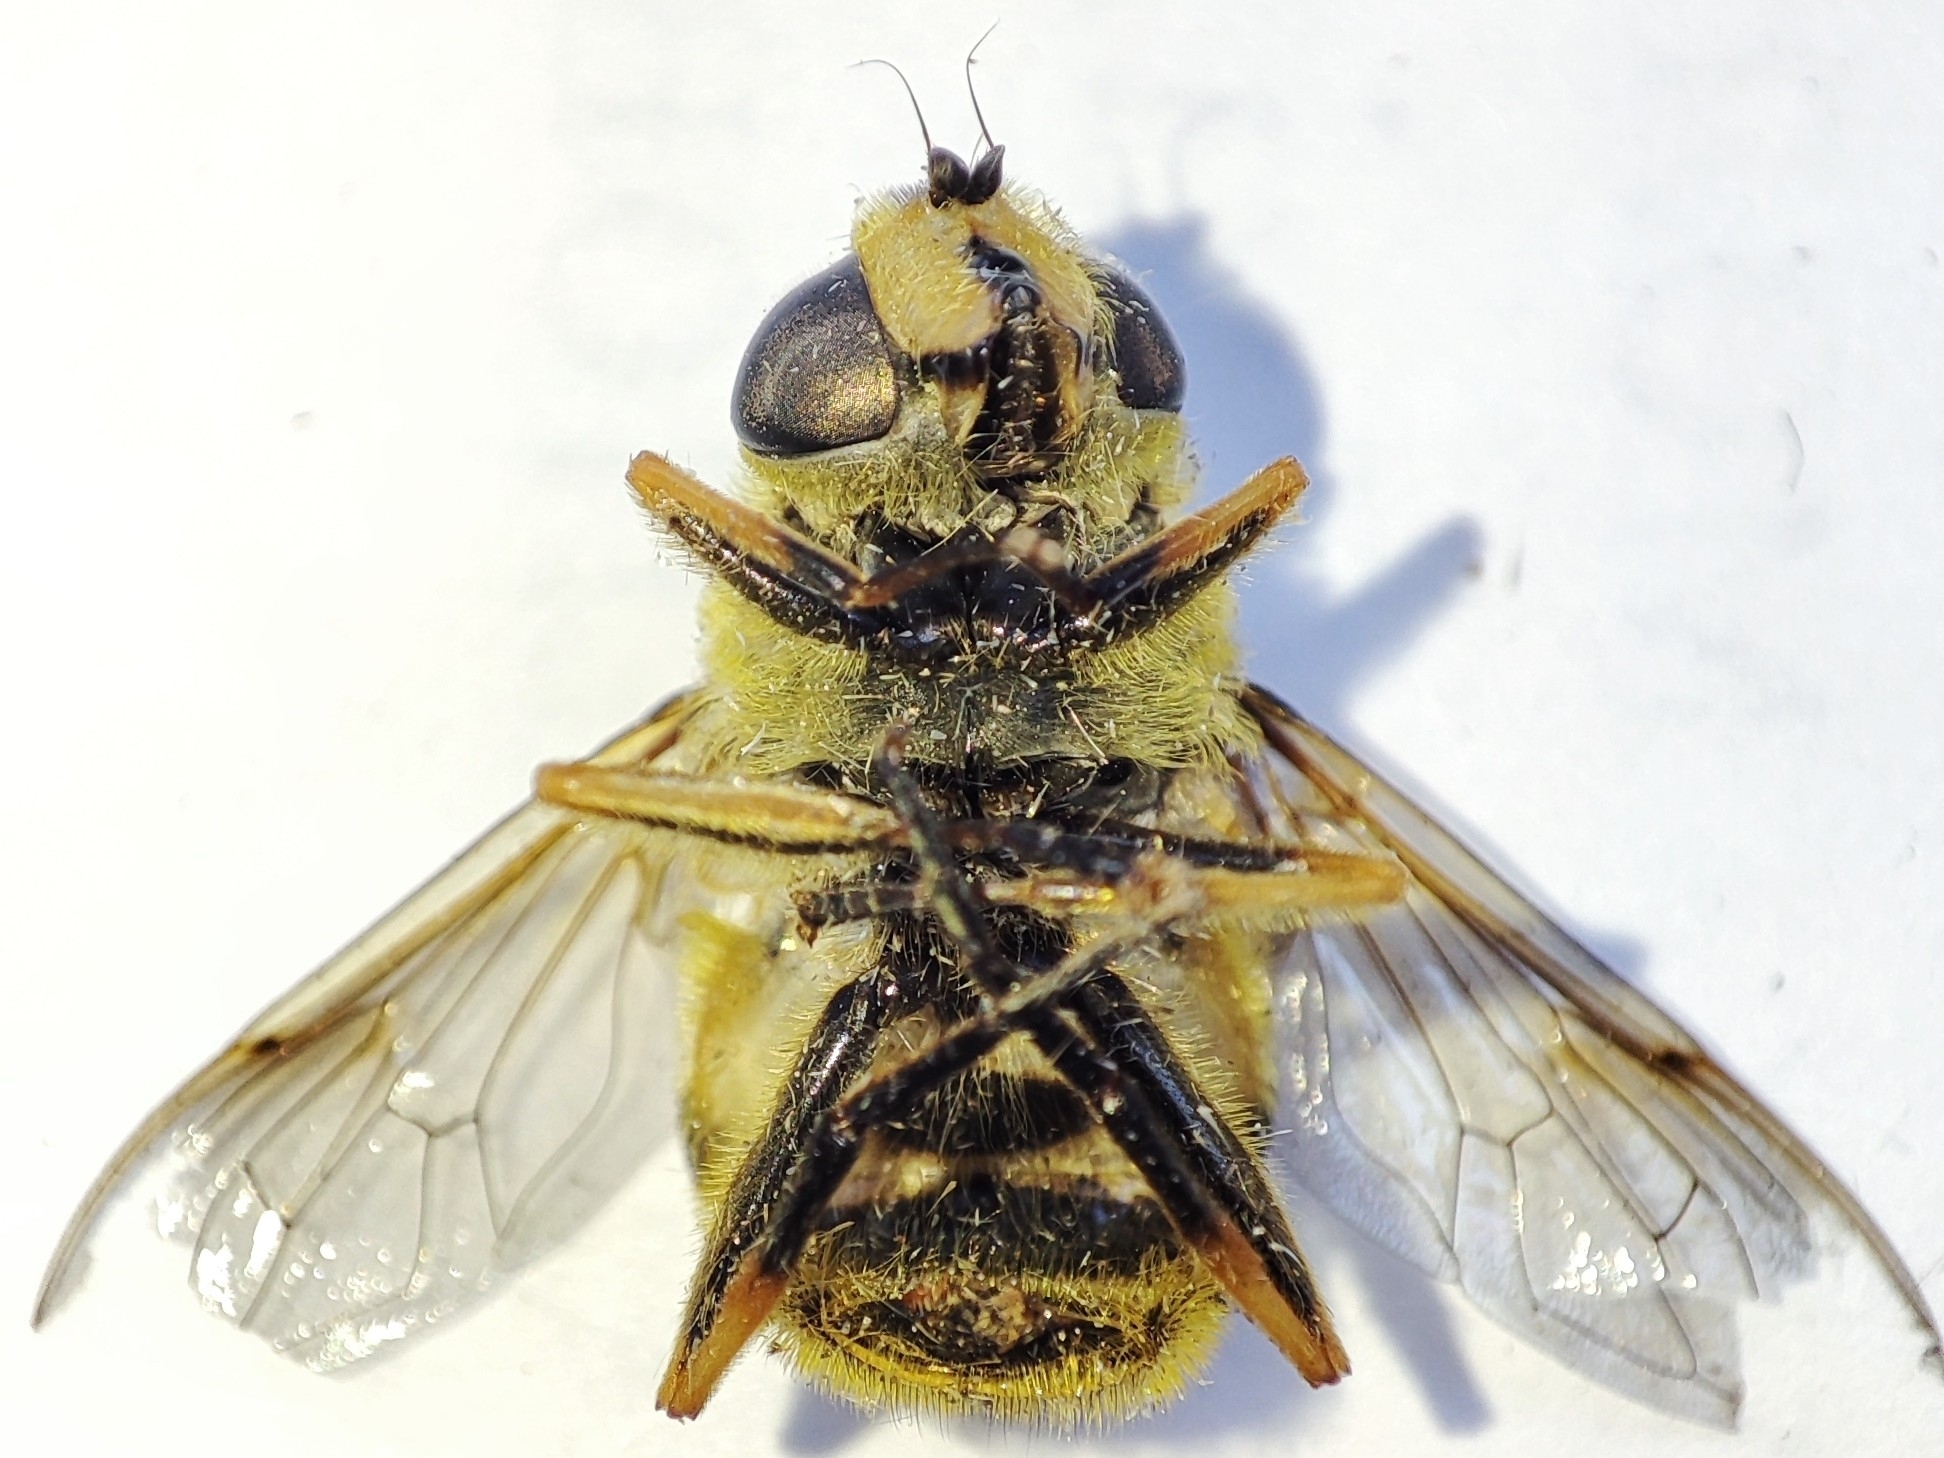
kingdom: Animalia
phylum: Arthropoda
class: Insecta
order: Diptera
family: Syrphidae
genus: Myathropa
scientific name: Myathropa florea
